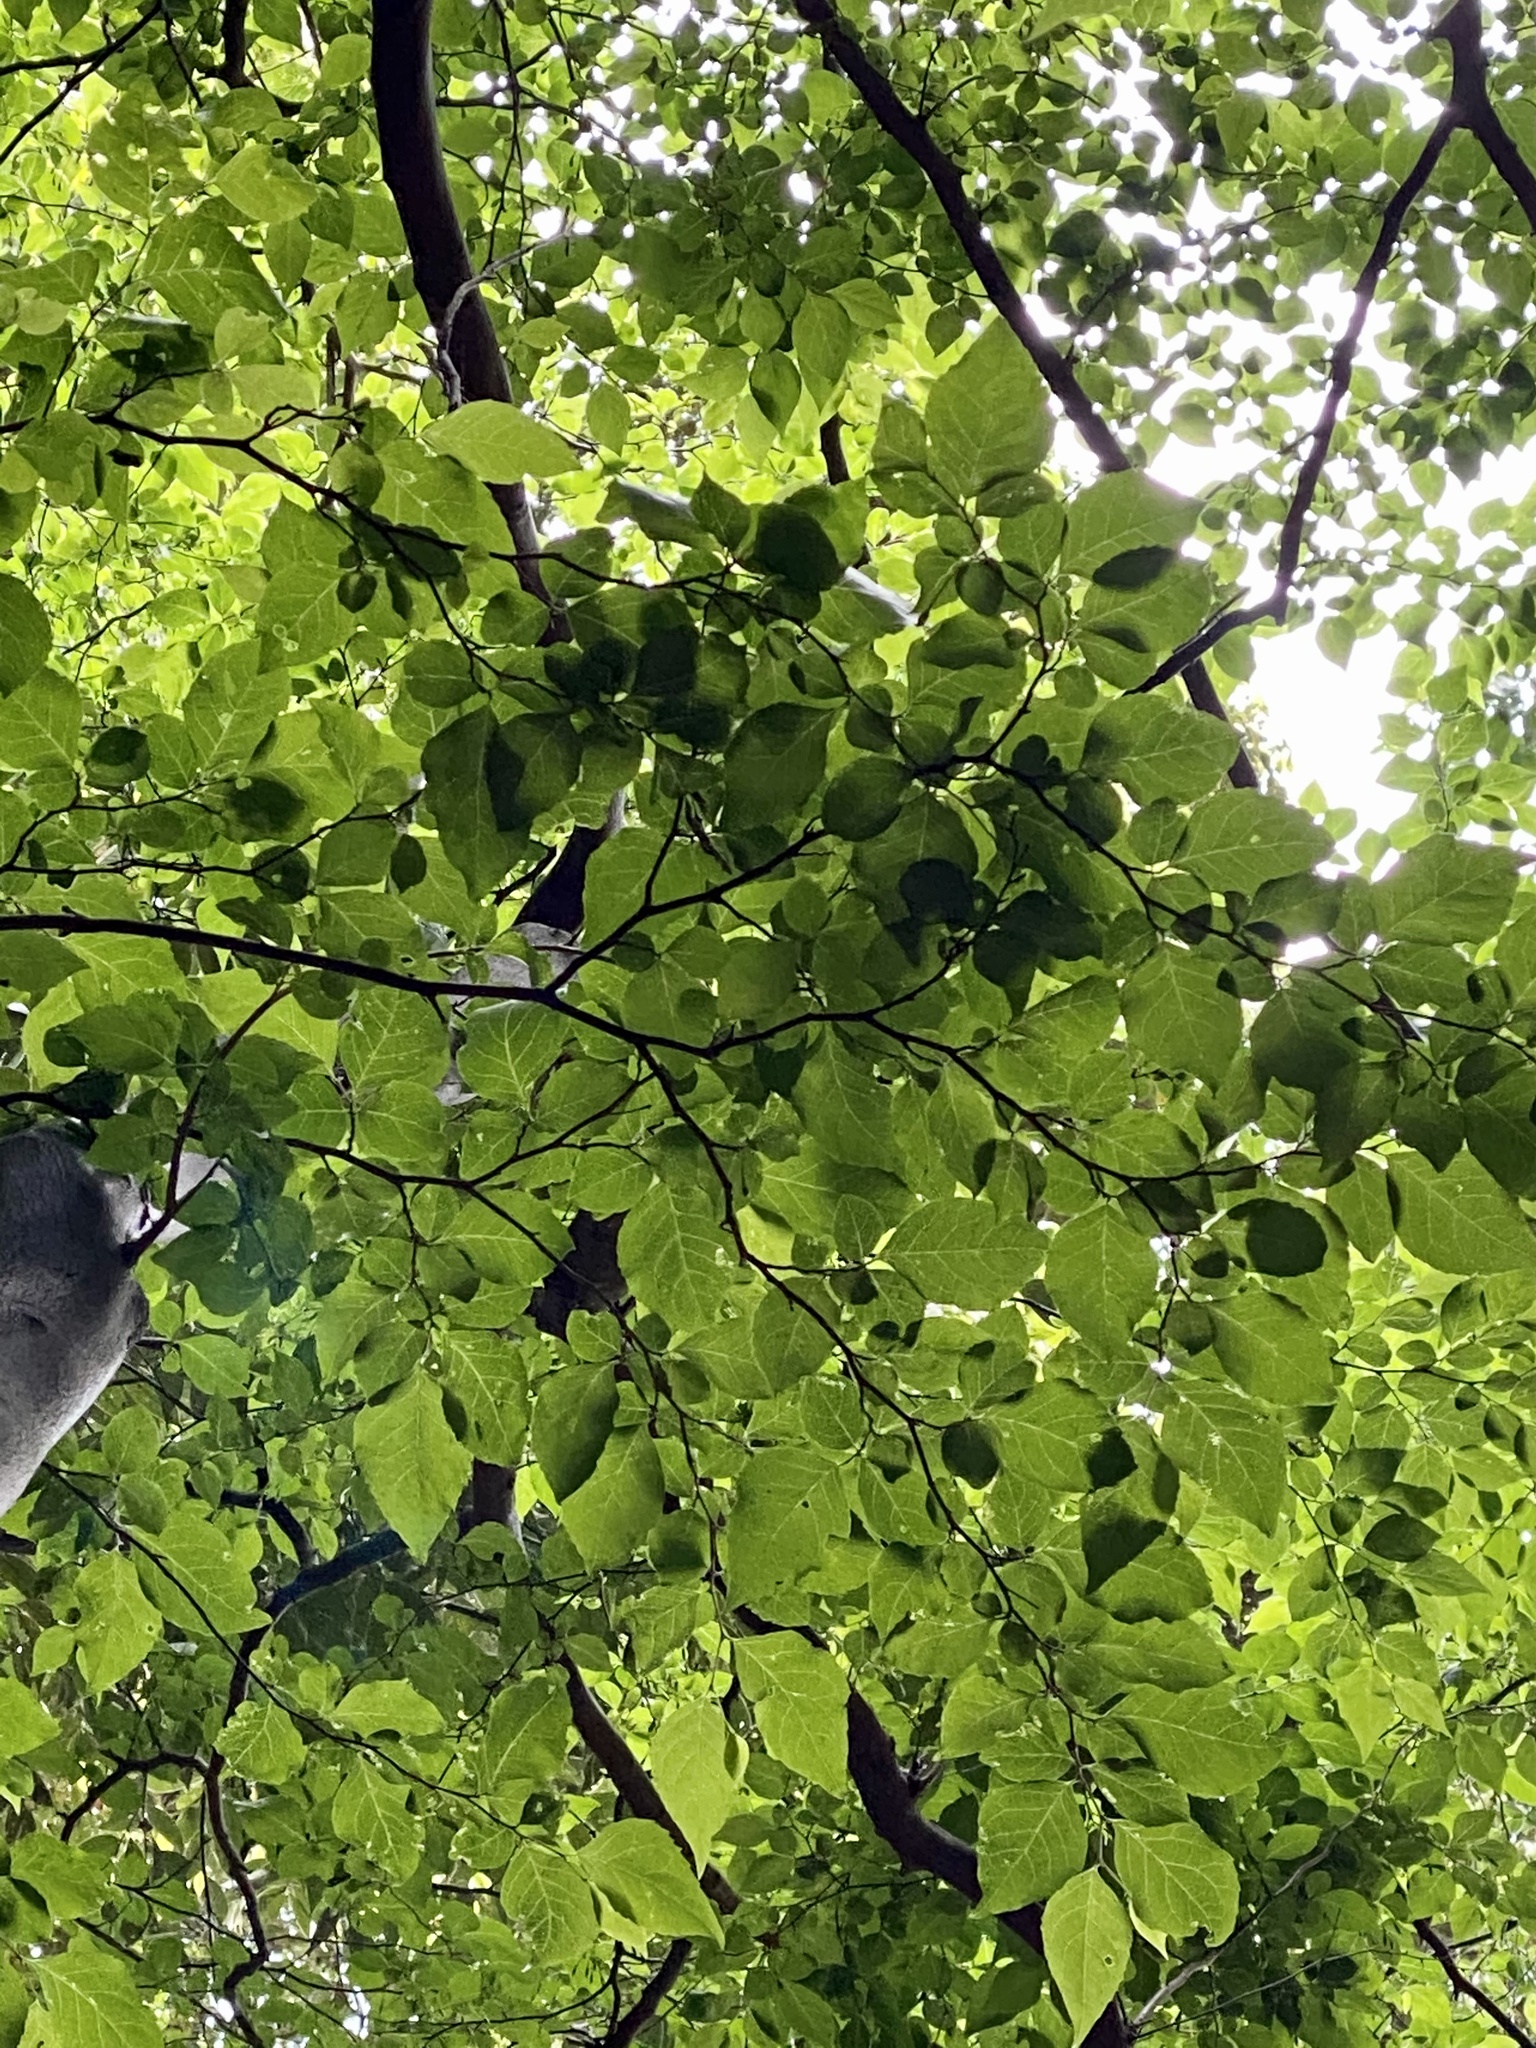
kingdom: Plantae
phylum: Tracheophyta
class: Magnoliopsida
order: Ericales
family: Styracaceae
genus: Styrax
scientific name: Styrax japonicus
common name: Japanese snowbell
